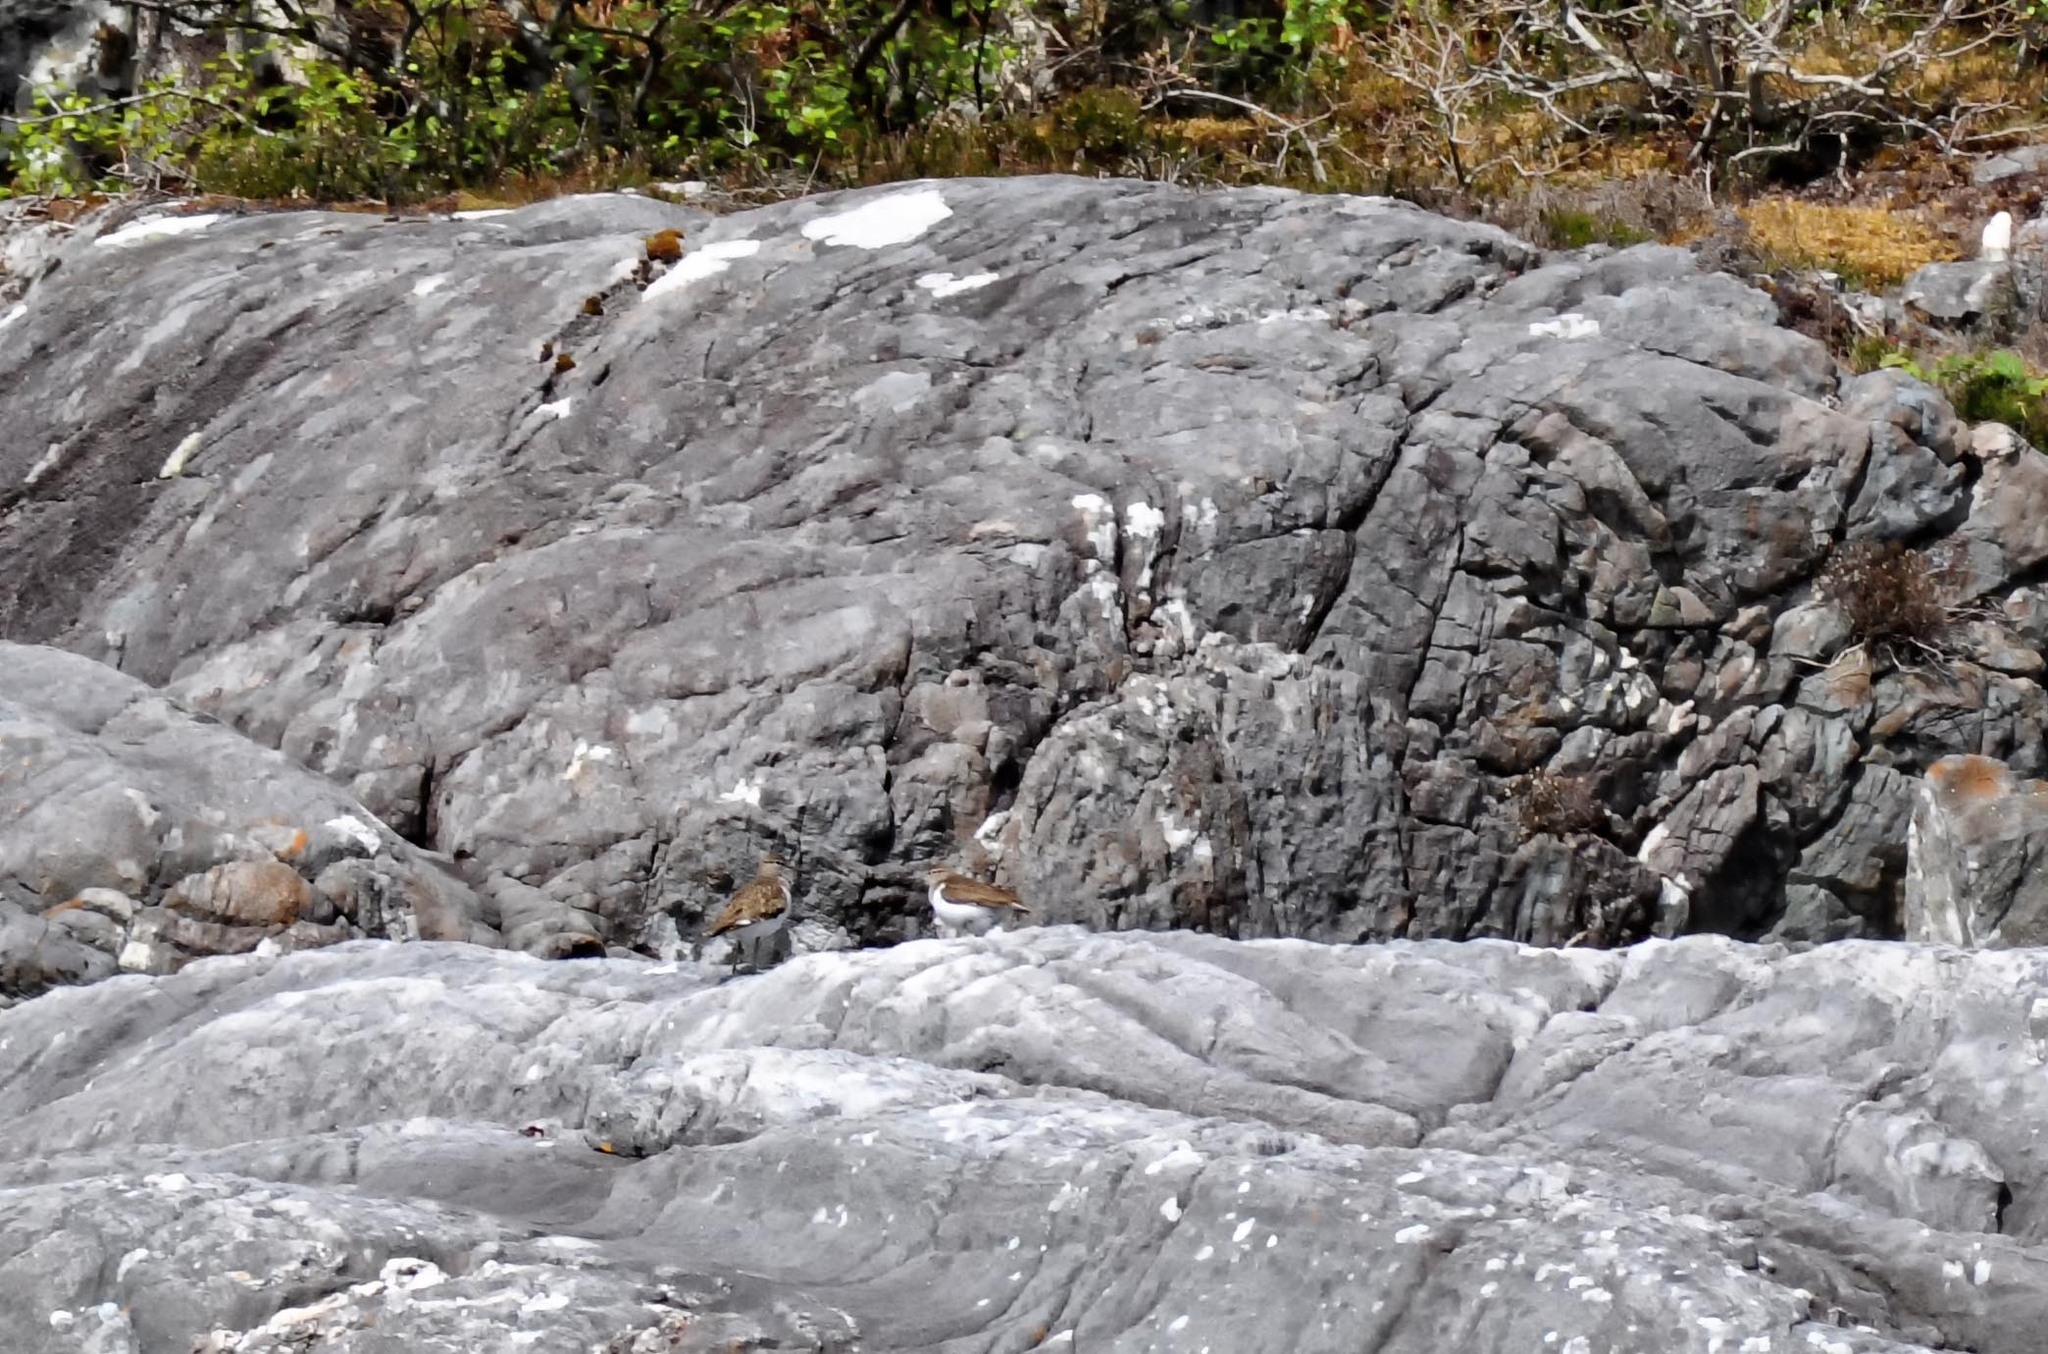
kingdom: Animalia
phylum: Chordata
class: Aves
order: Charadriiformes
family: Scolopacidae
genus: Actitis
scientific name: Actitis hypoleucos
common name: Common sandpiper
